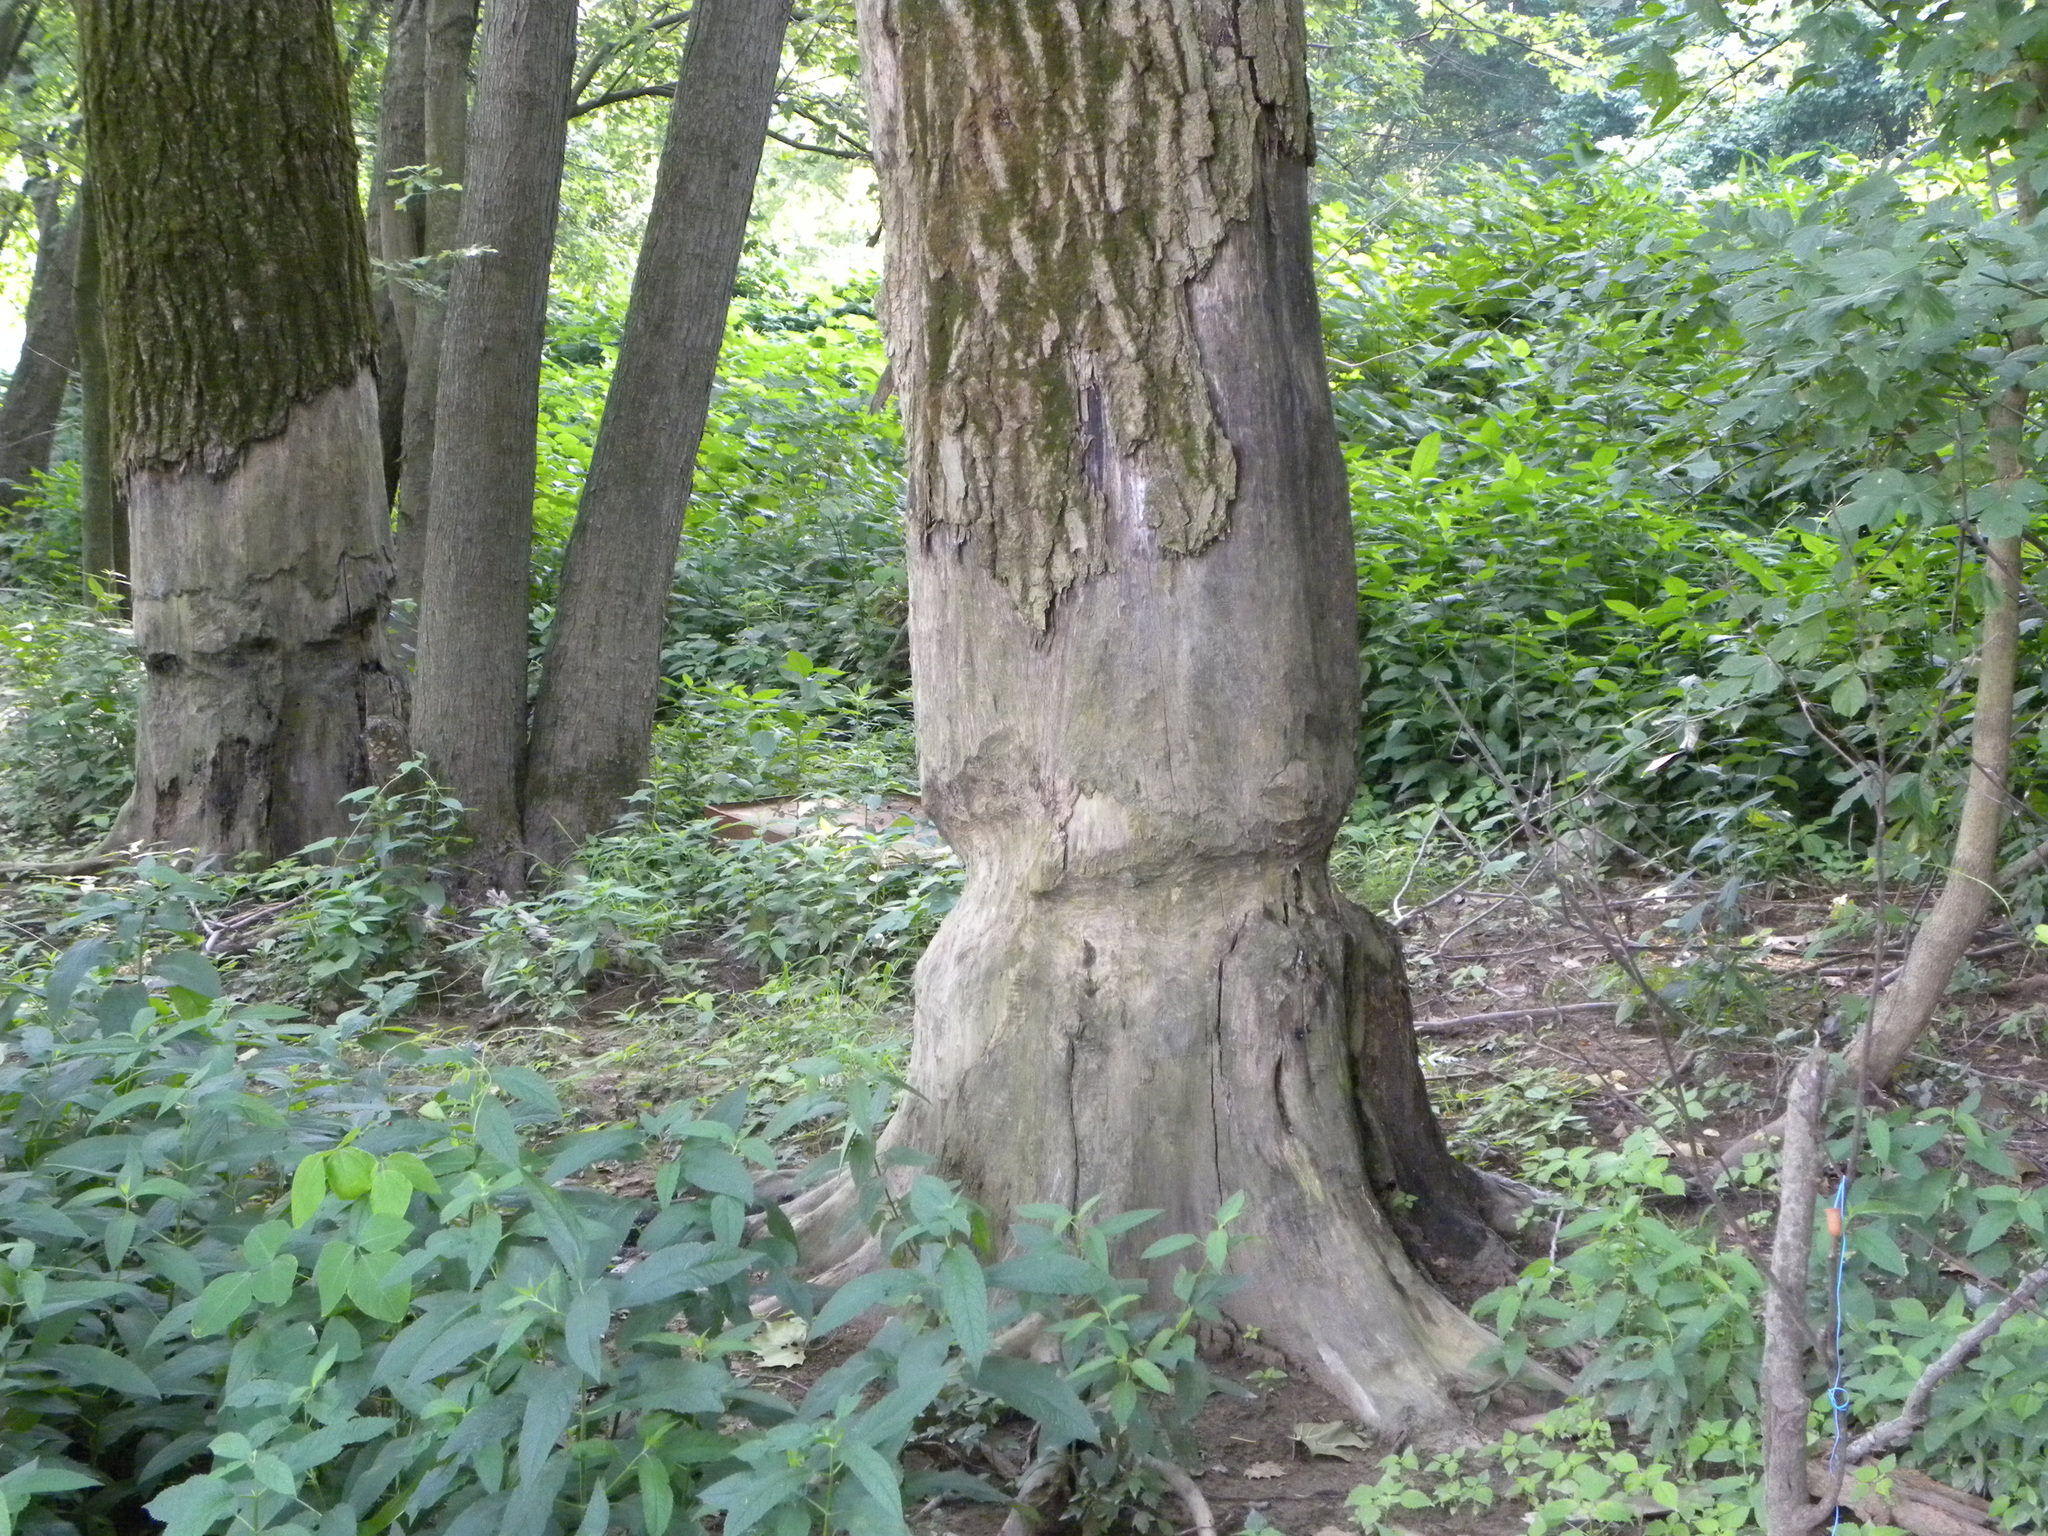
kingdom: Animalia
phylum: Chordata
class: Mammalia
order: Rodentia
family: Castoridae
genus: Castor
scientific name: Castor canadensis
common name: American beaver
